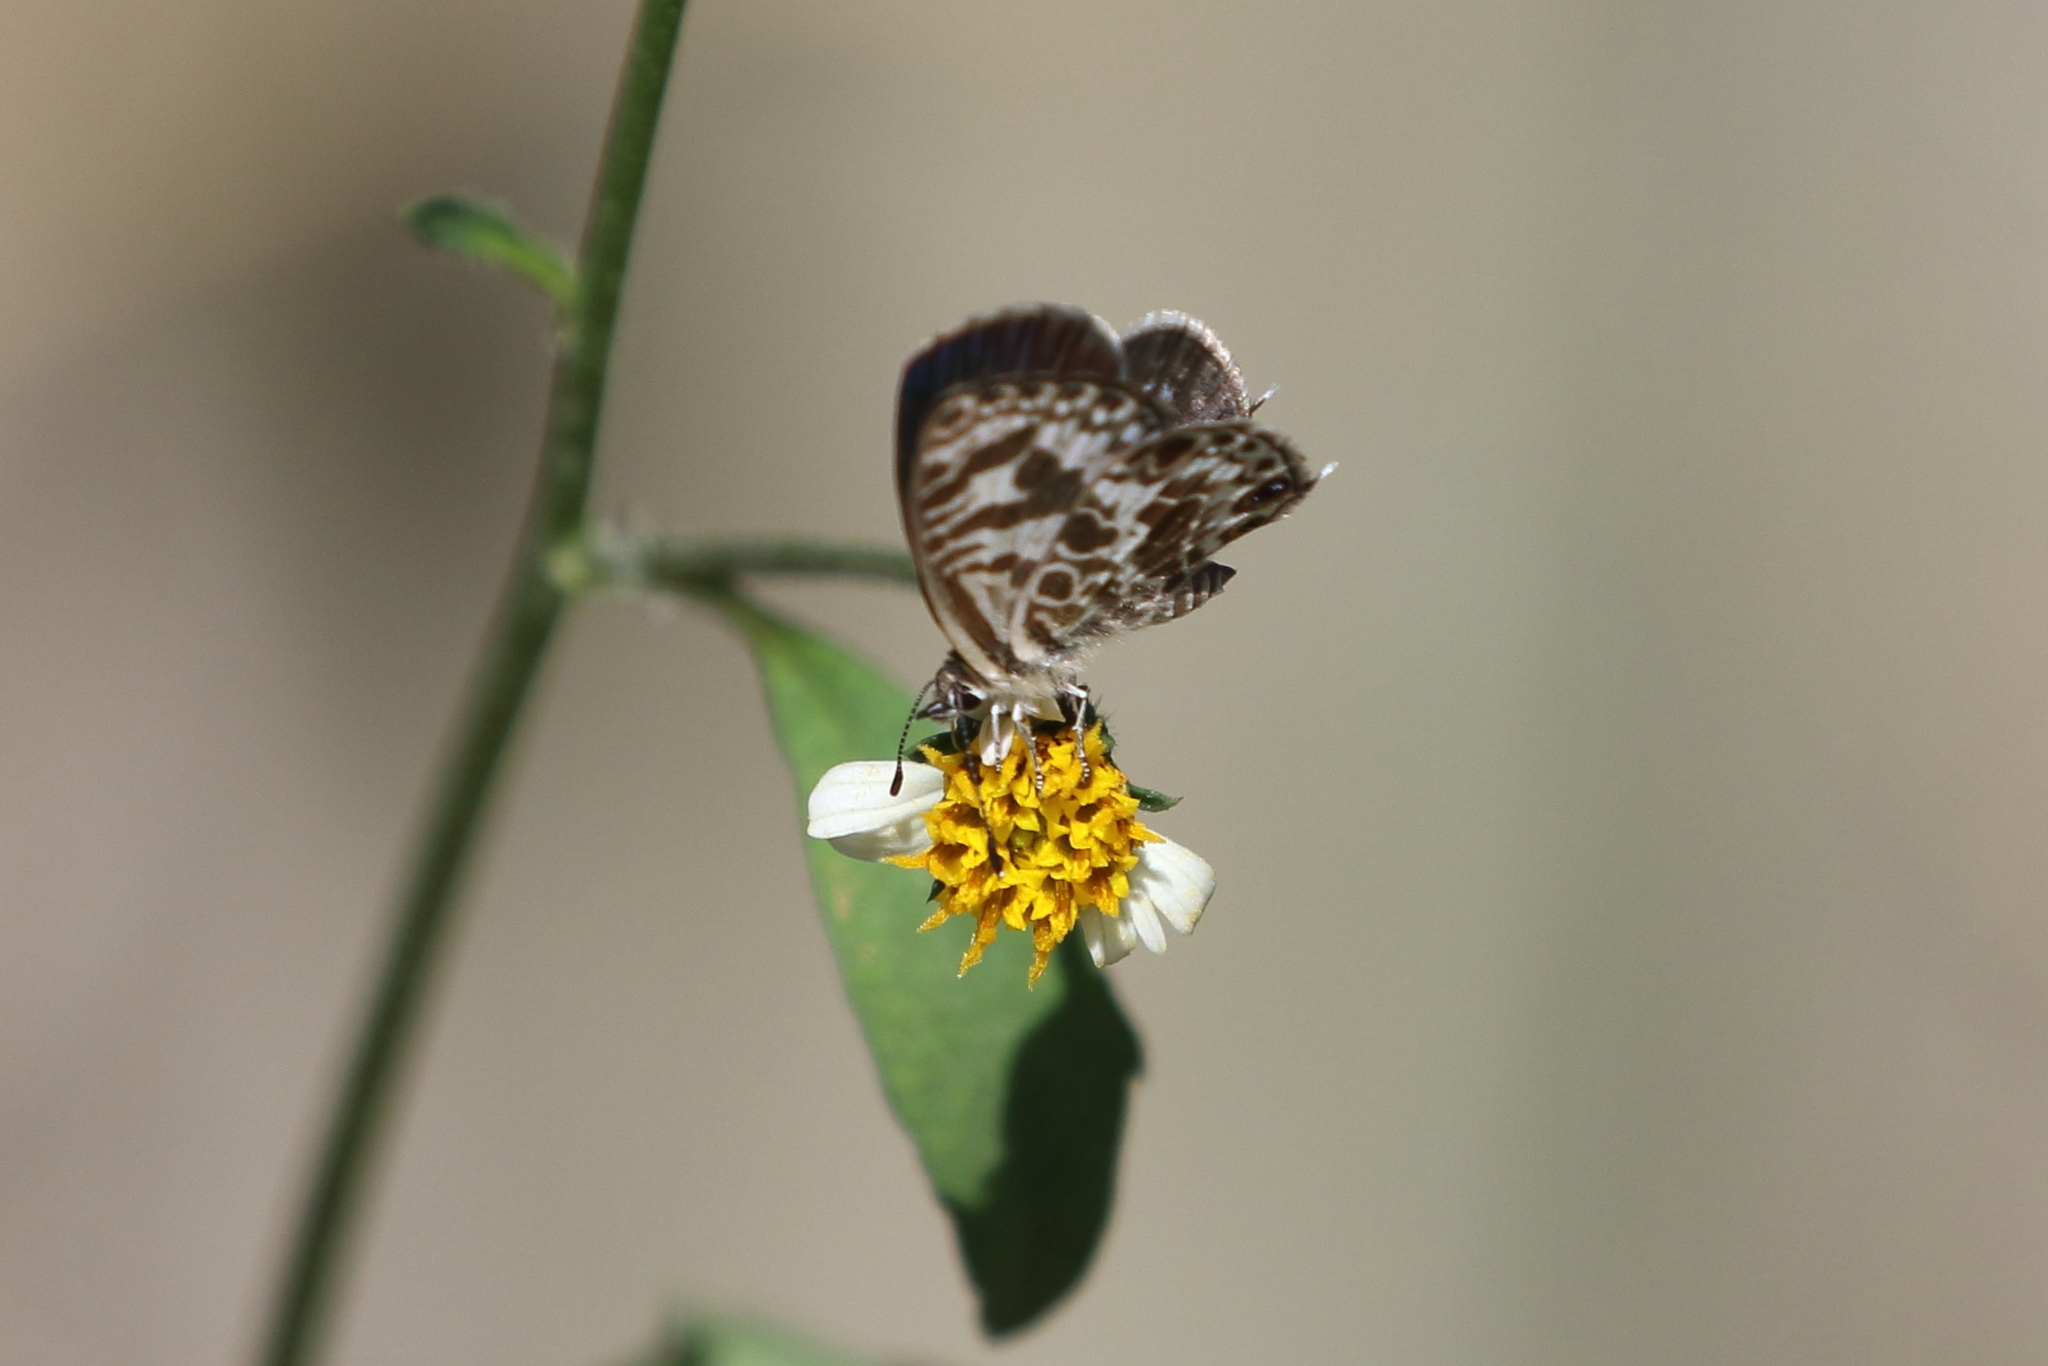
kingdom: Animalia
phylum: Arthropoda
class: Insecta
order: Lepidoptera
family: Lycaenidae
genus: Leptotes
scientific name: Leptotes plinius
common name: Zebra blue
